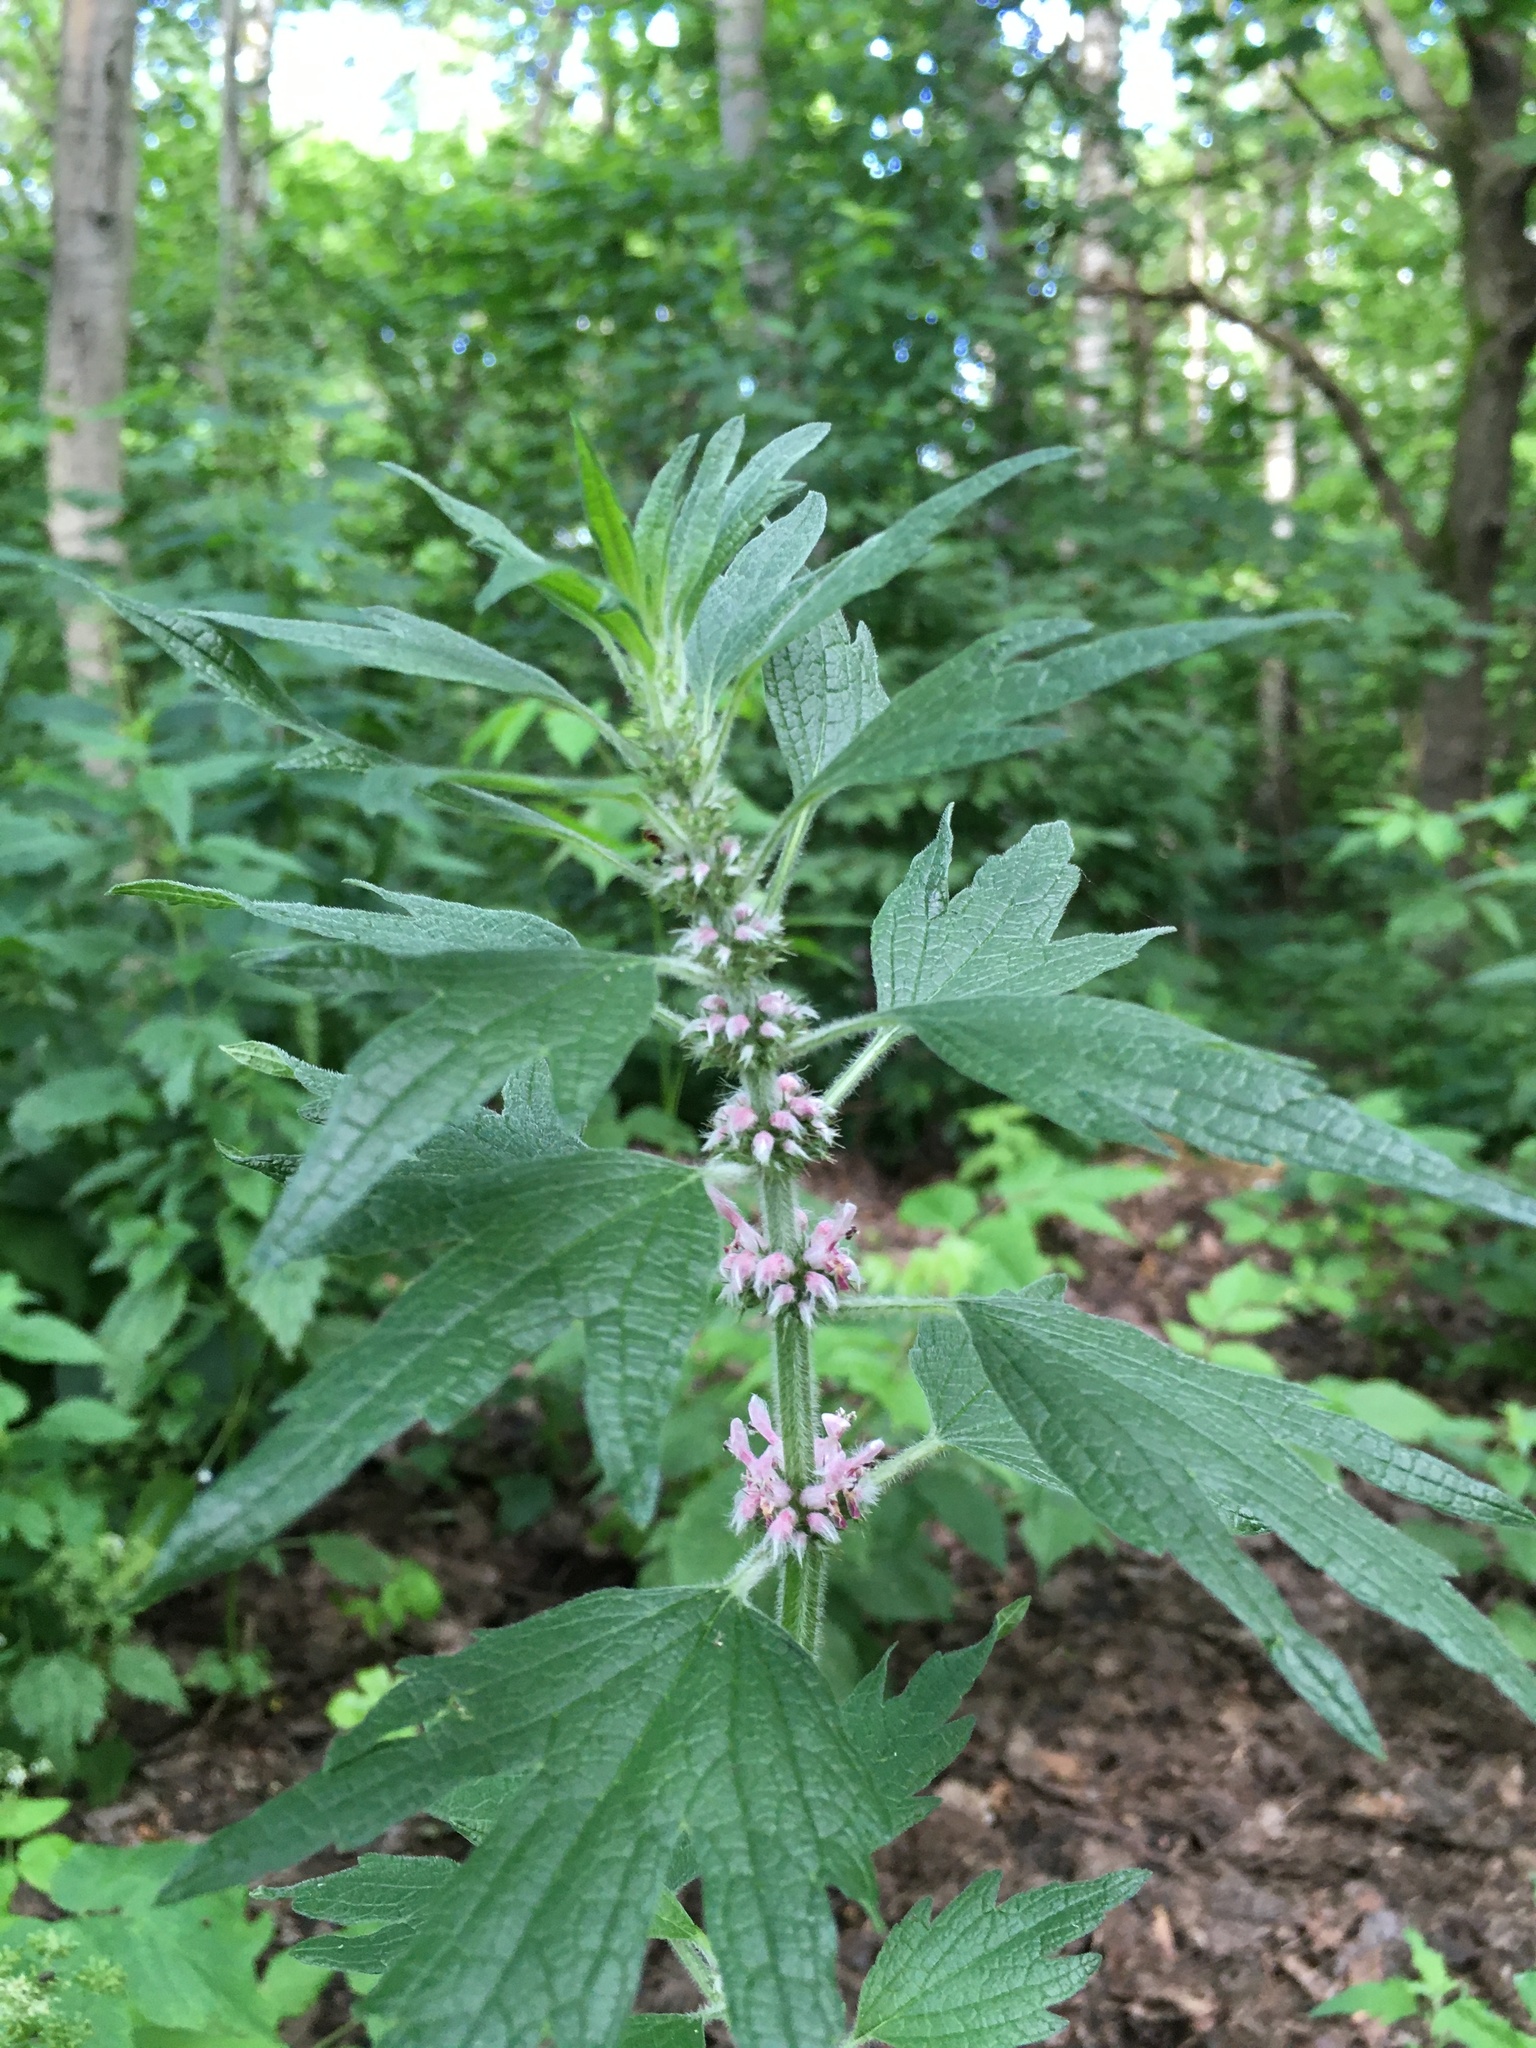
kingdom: Plantae
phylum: Tracheophyta
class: Magnoliopsida
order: Lamiales
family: Lamiaceae
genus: Leonurus
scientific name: Leonurus quinquelobatus
